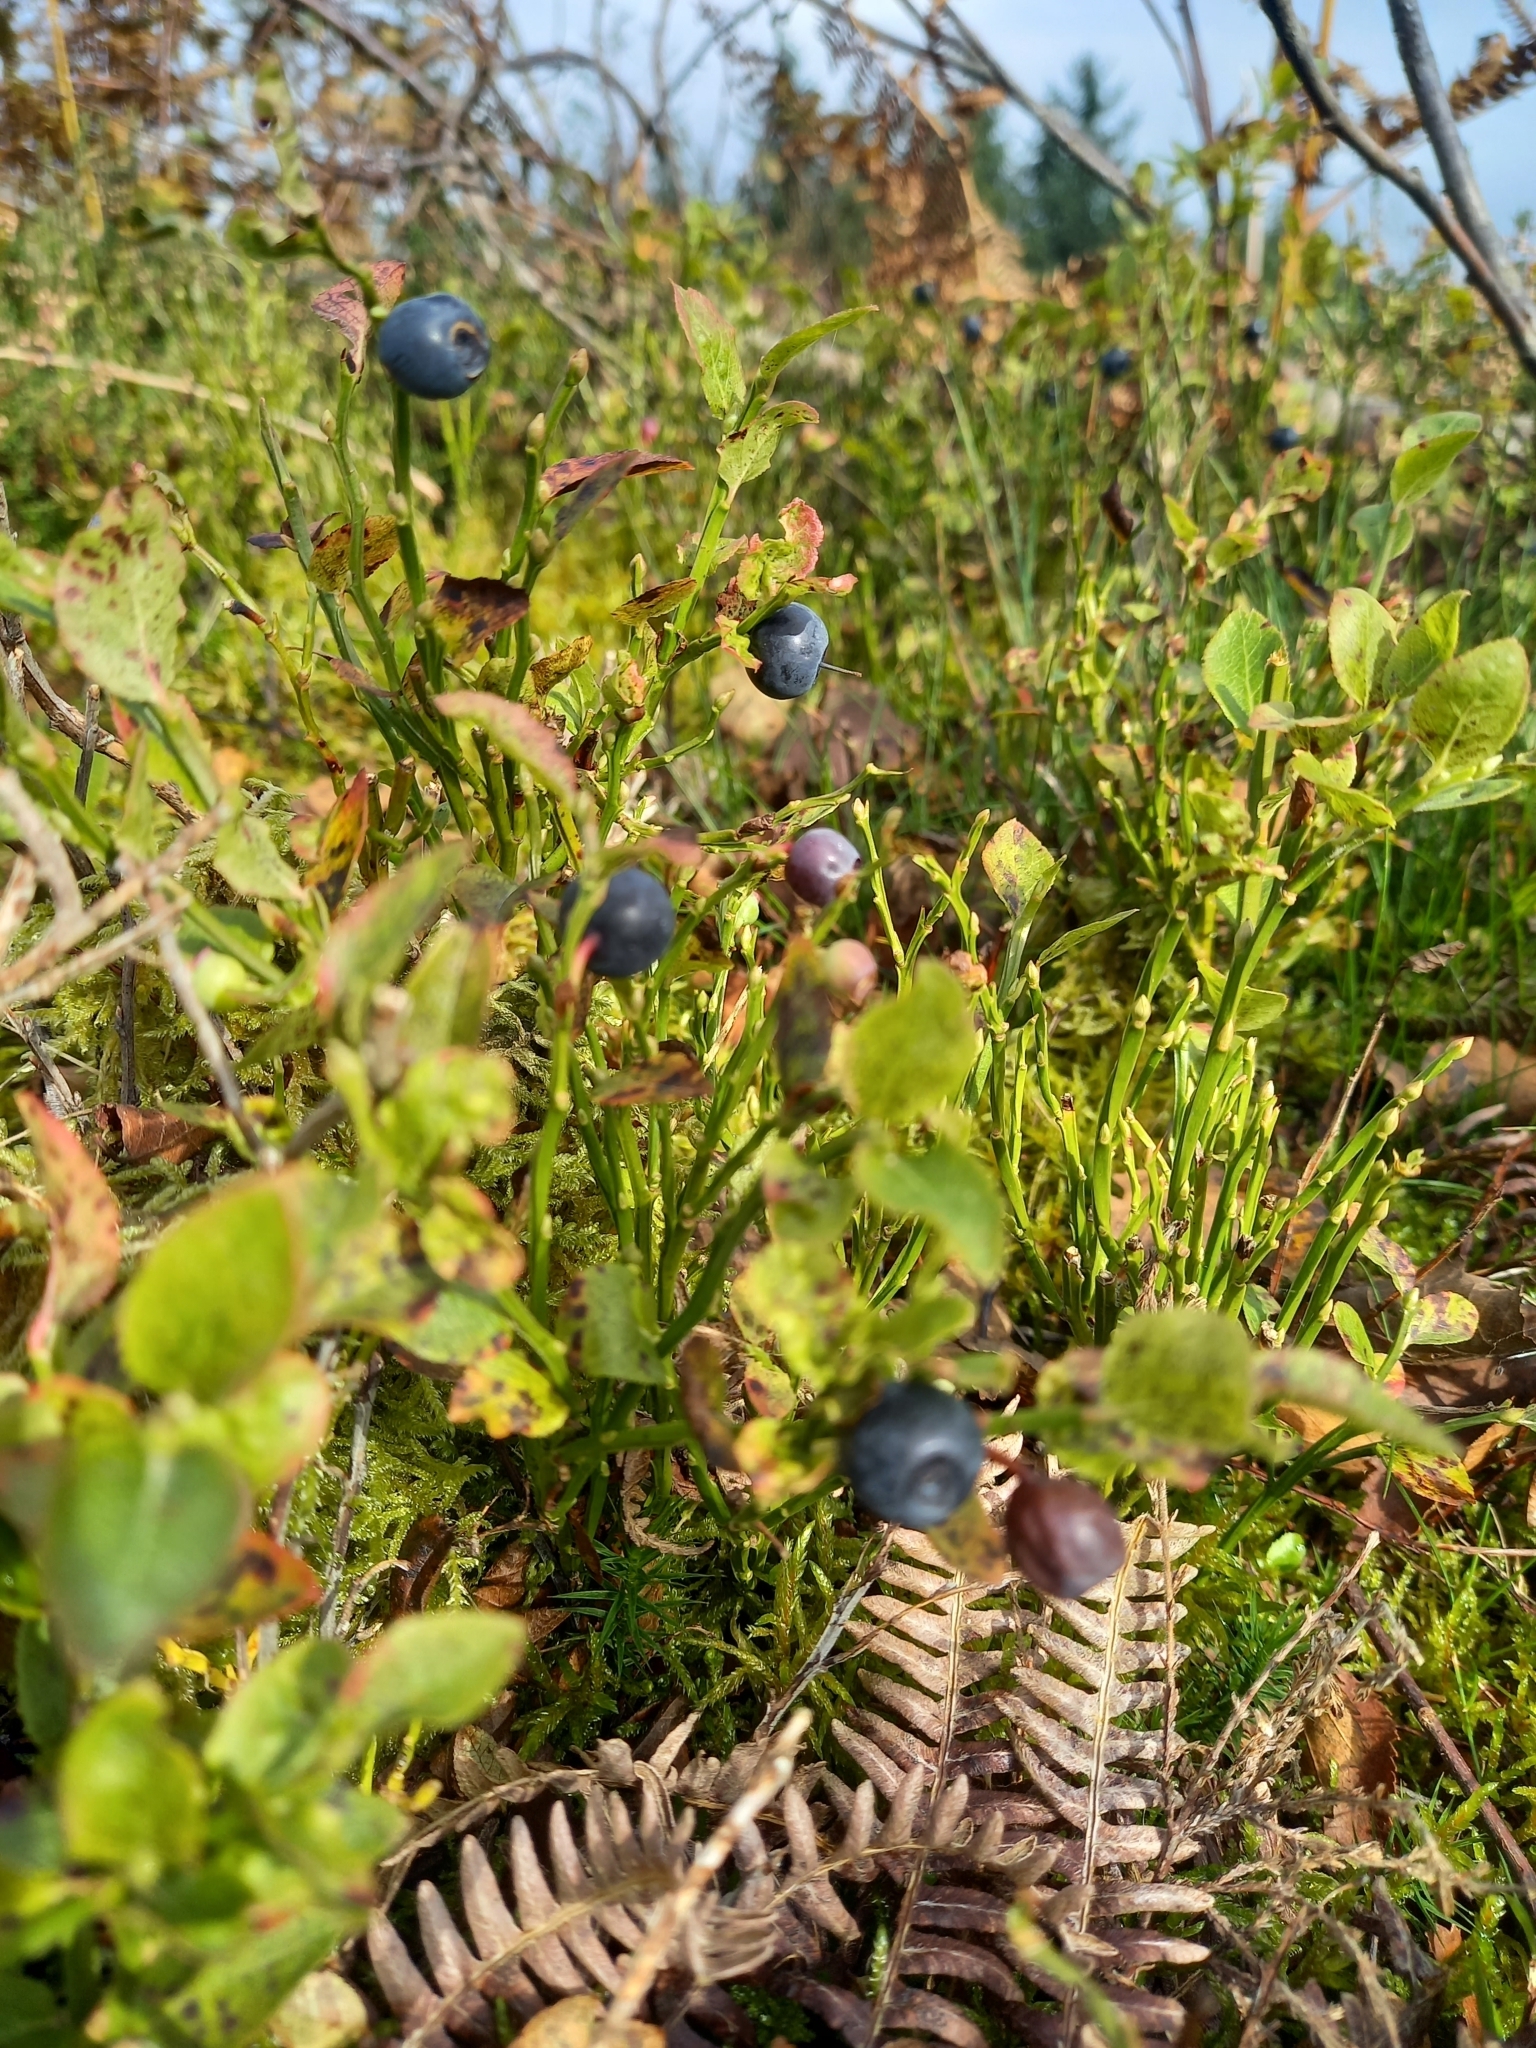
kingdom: Plantae
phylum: Tracheophyta
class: Magnoliopsida
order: Ericales
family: Ericaceae
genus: Vaccinium
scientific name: Vaccinium myrtillus
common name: Bilberry
